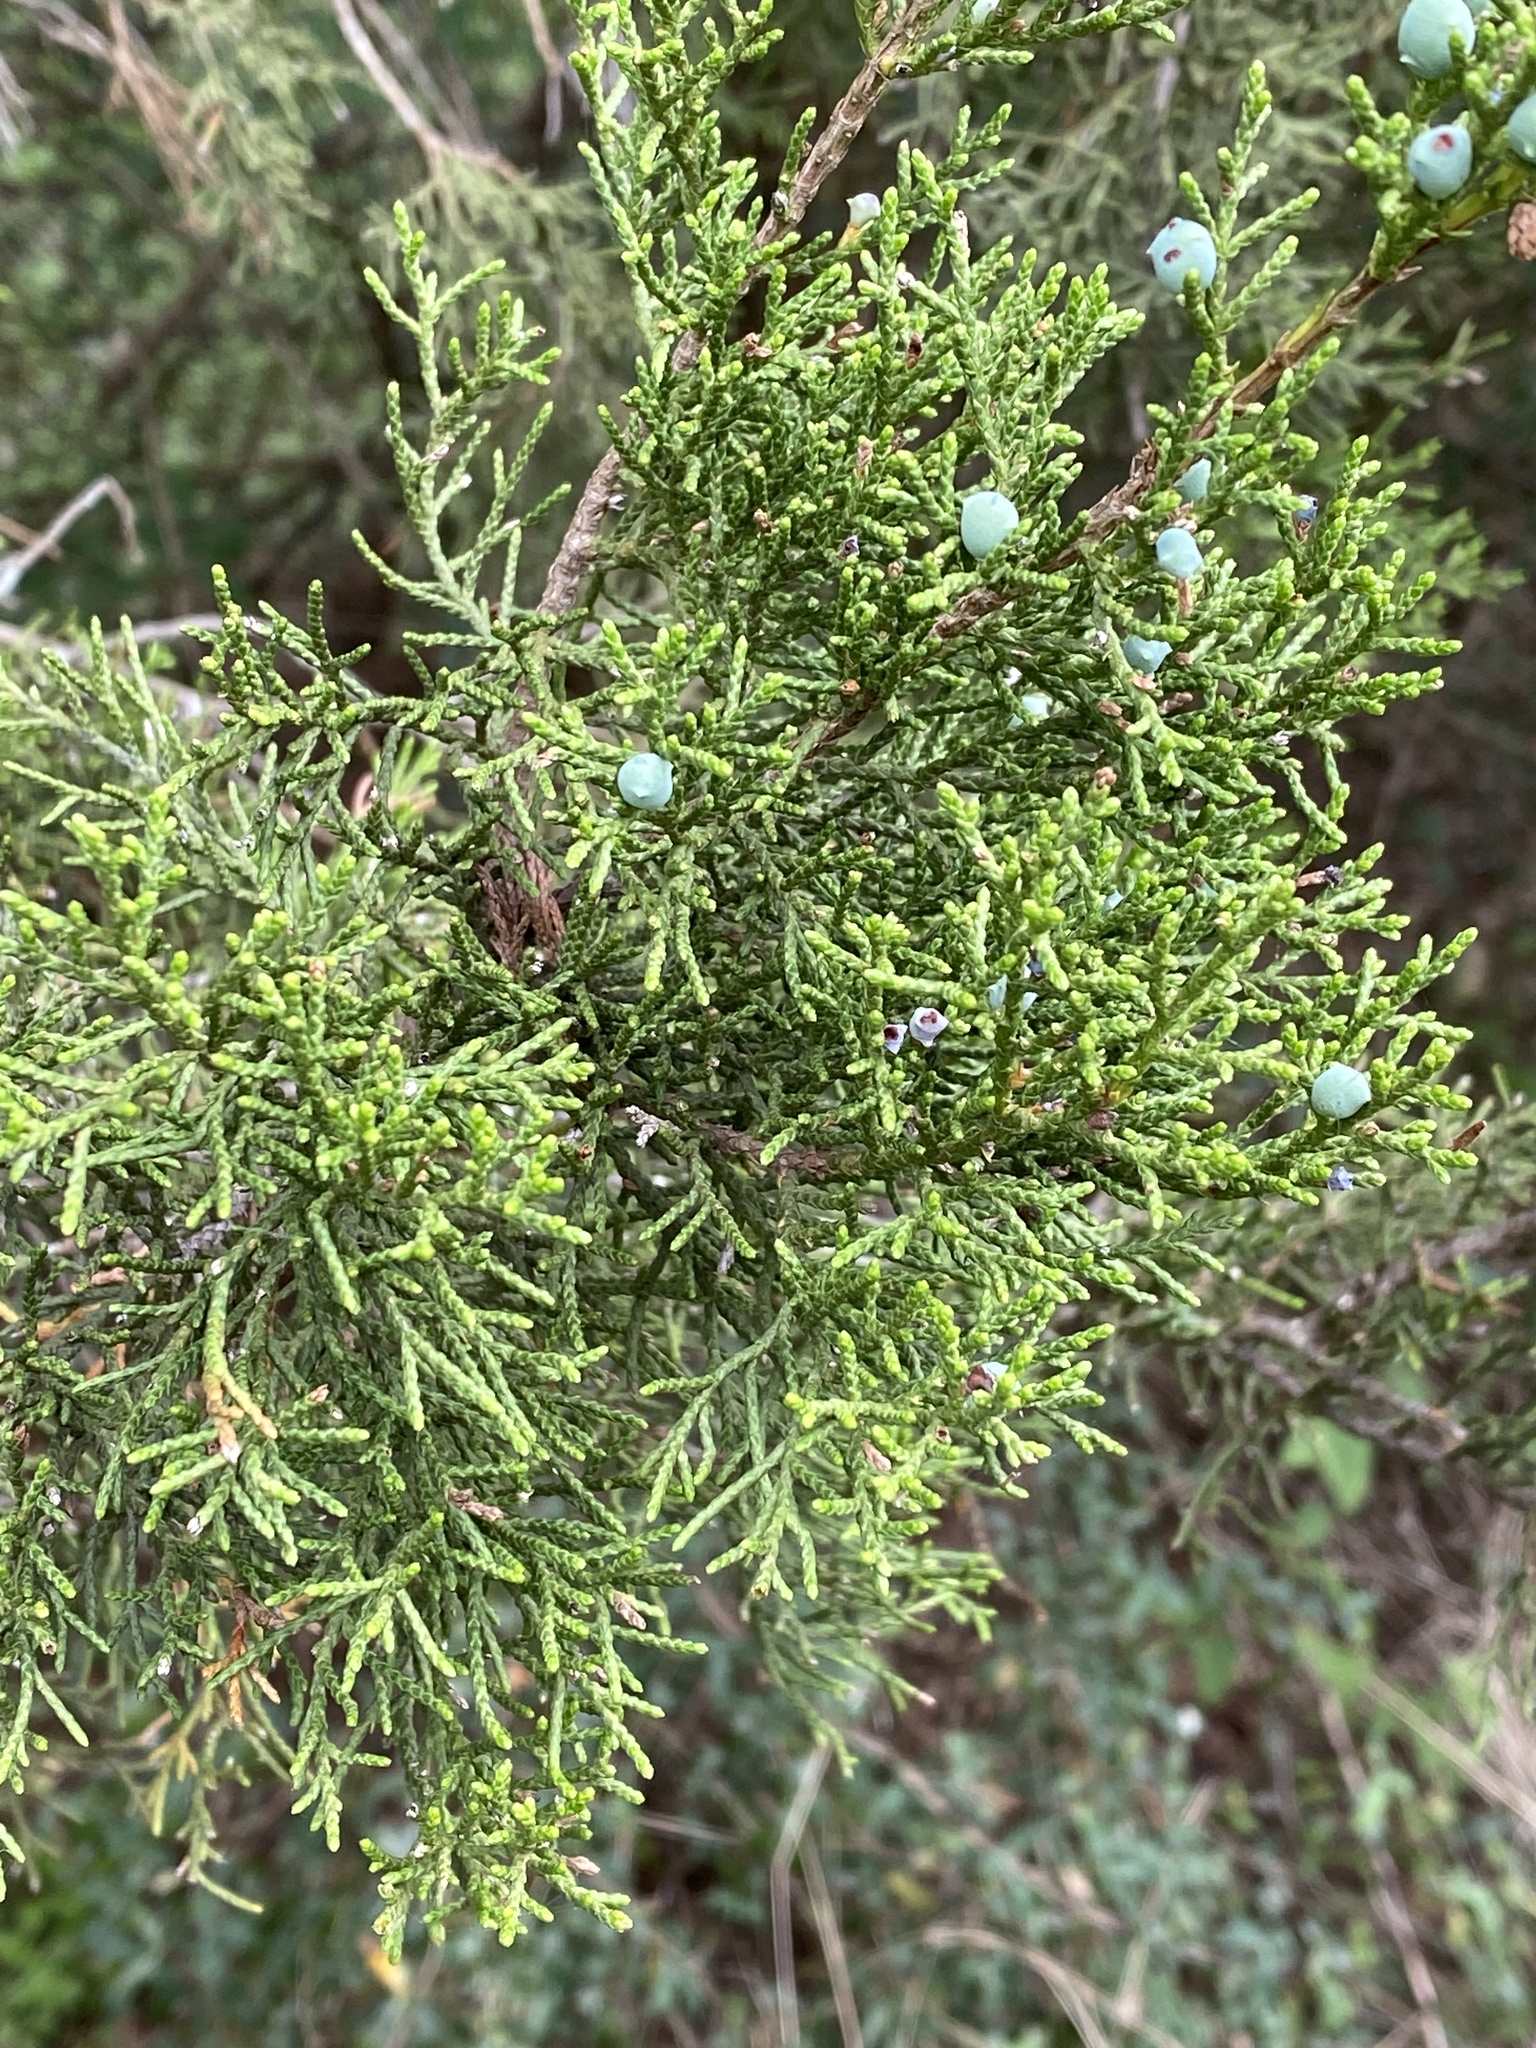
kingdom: Plantae
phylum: Tracheophyta
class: Pinopsida
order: Pinales
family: Cupressaceae
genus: Juniperus
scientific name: Juniperus ashei
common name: Mexican juniper
